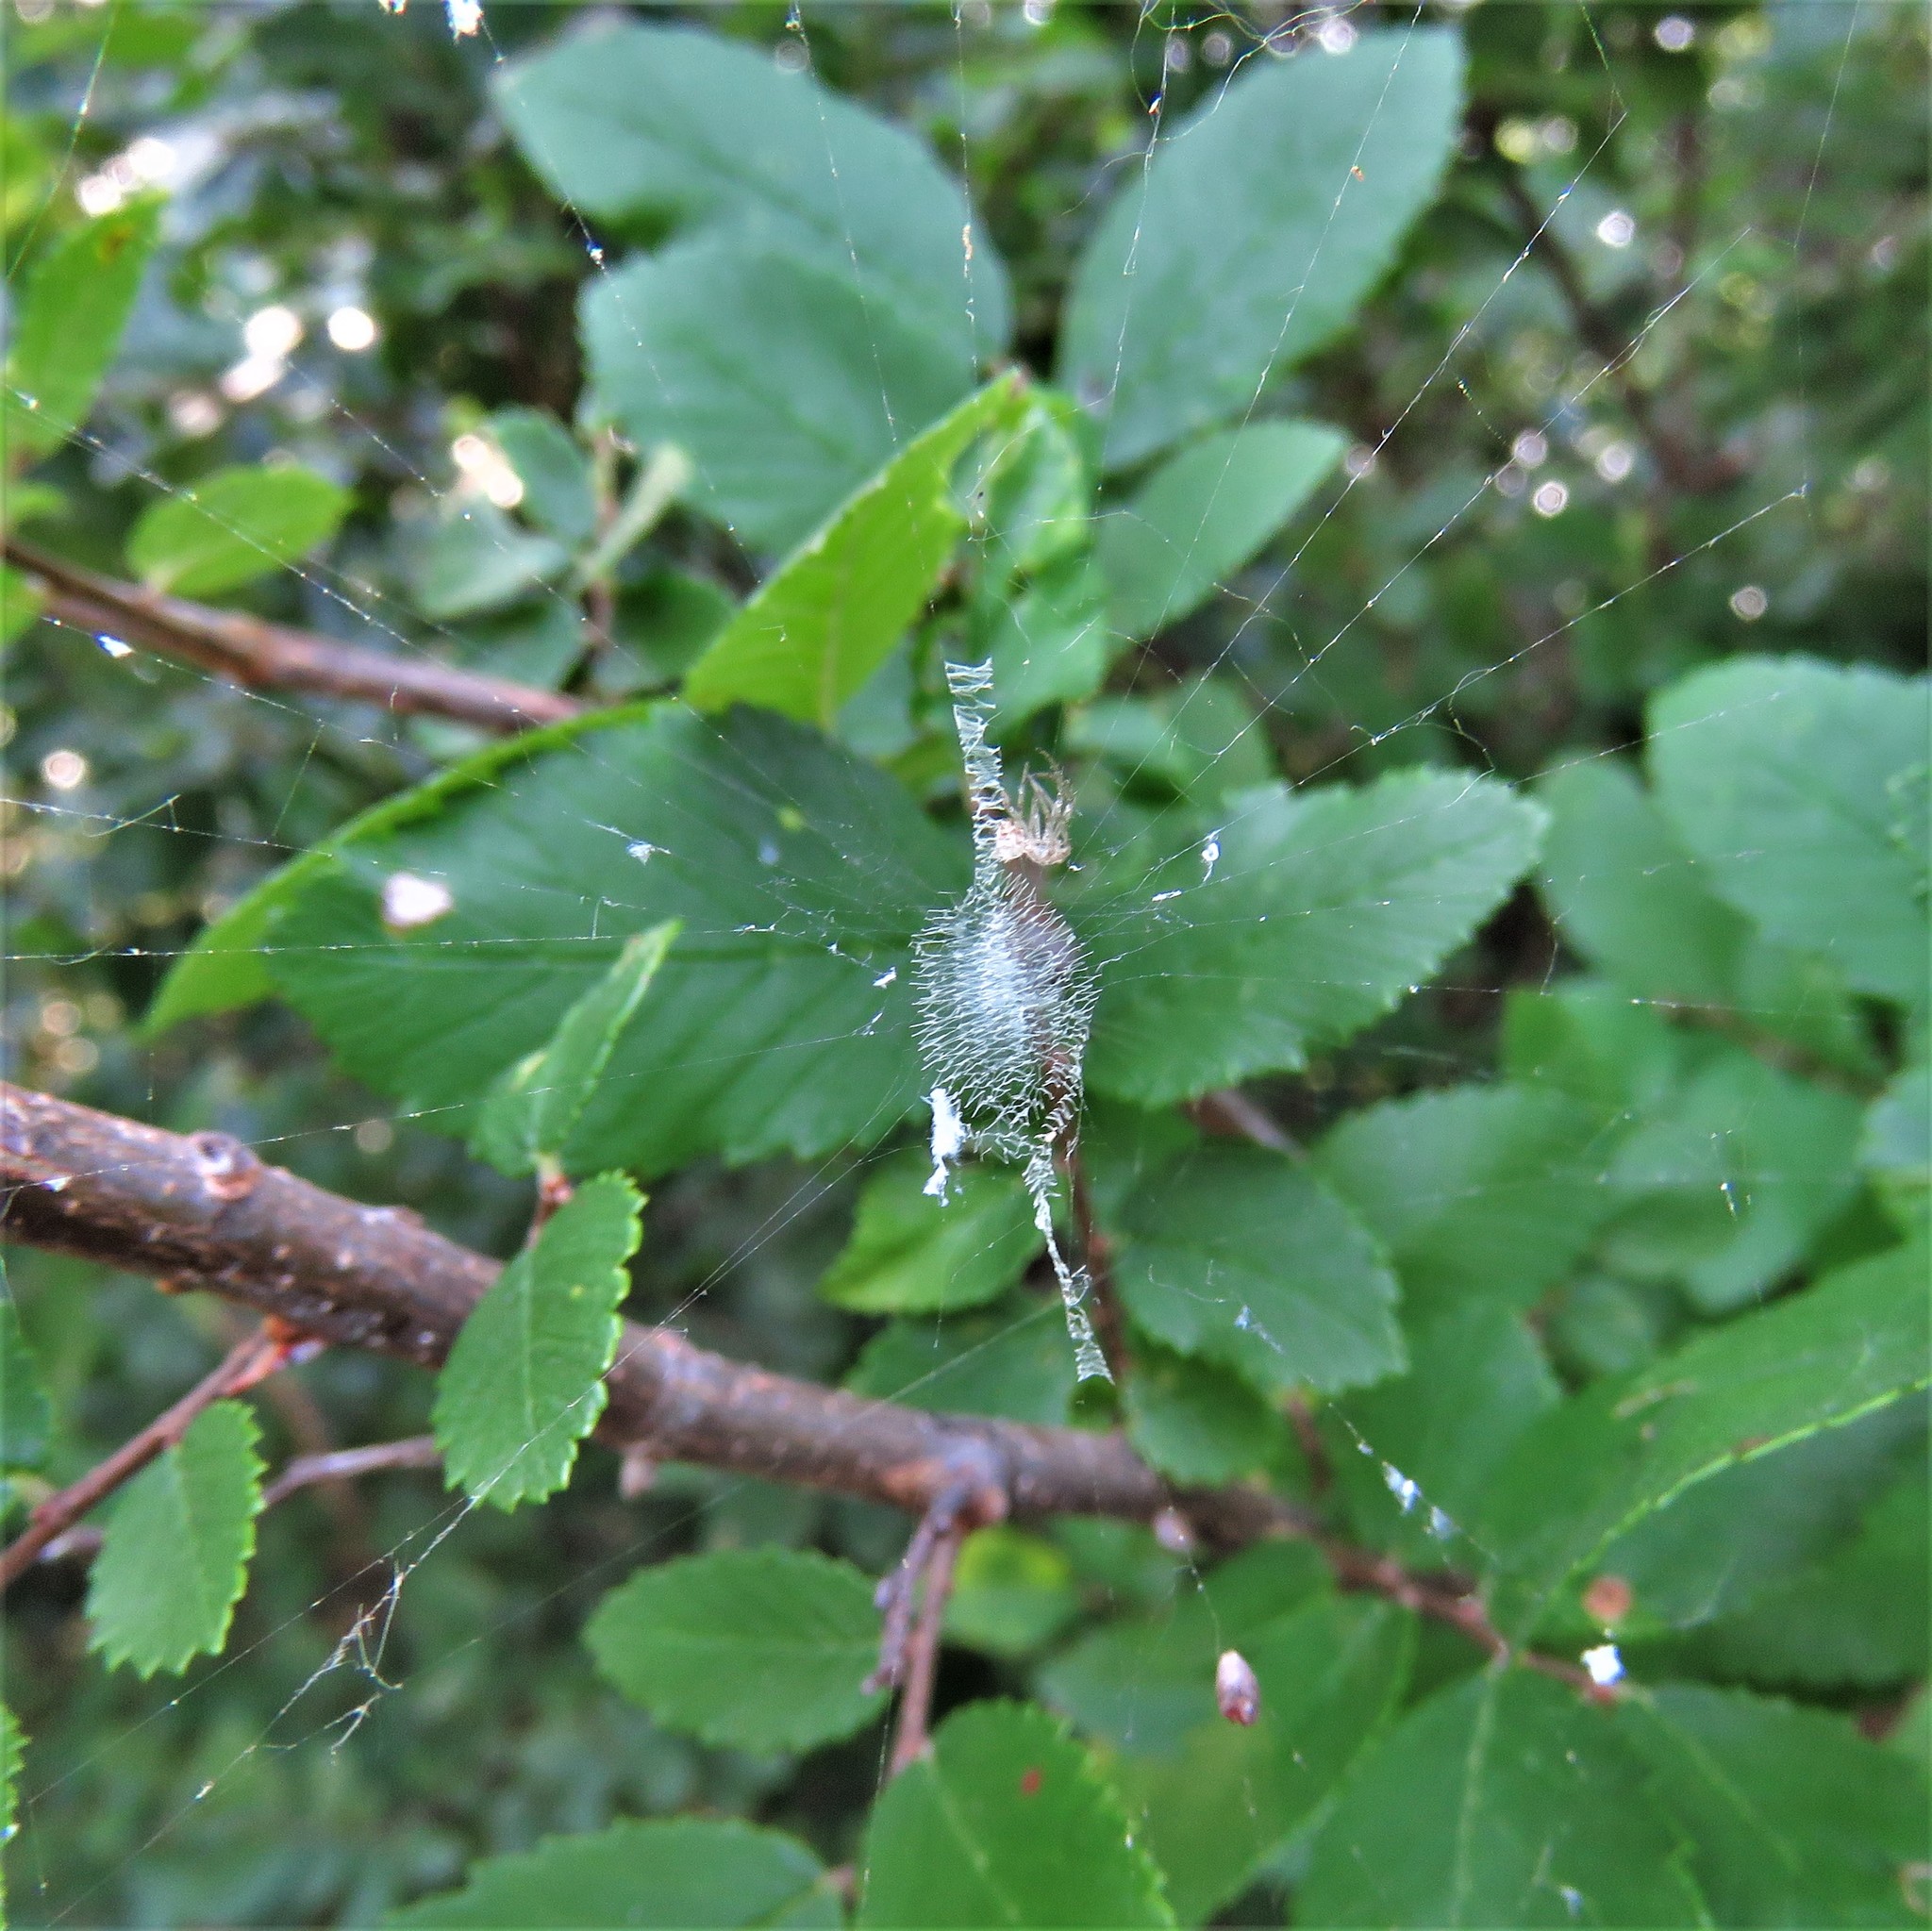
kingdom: Animalia
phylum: Arthropoda
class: Arachnida
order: Araneae
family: Araneidae
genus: Argiope
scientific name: Argiope aurantia
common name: Orb weavers
